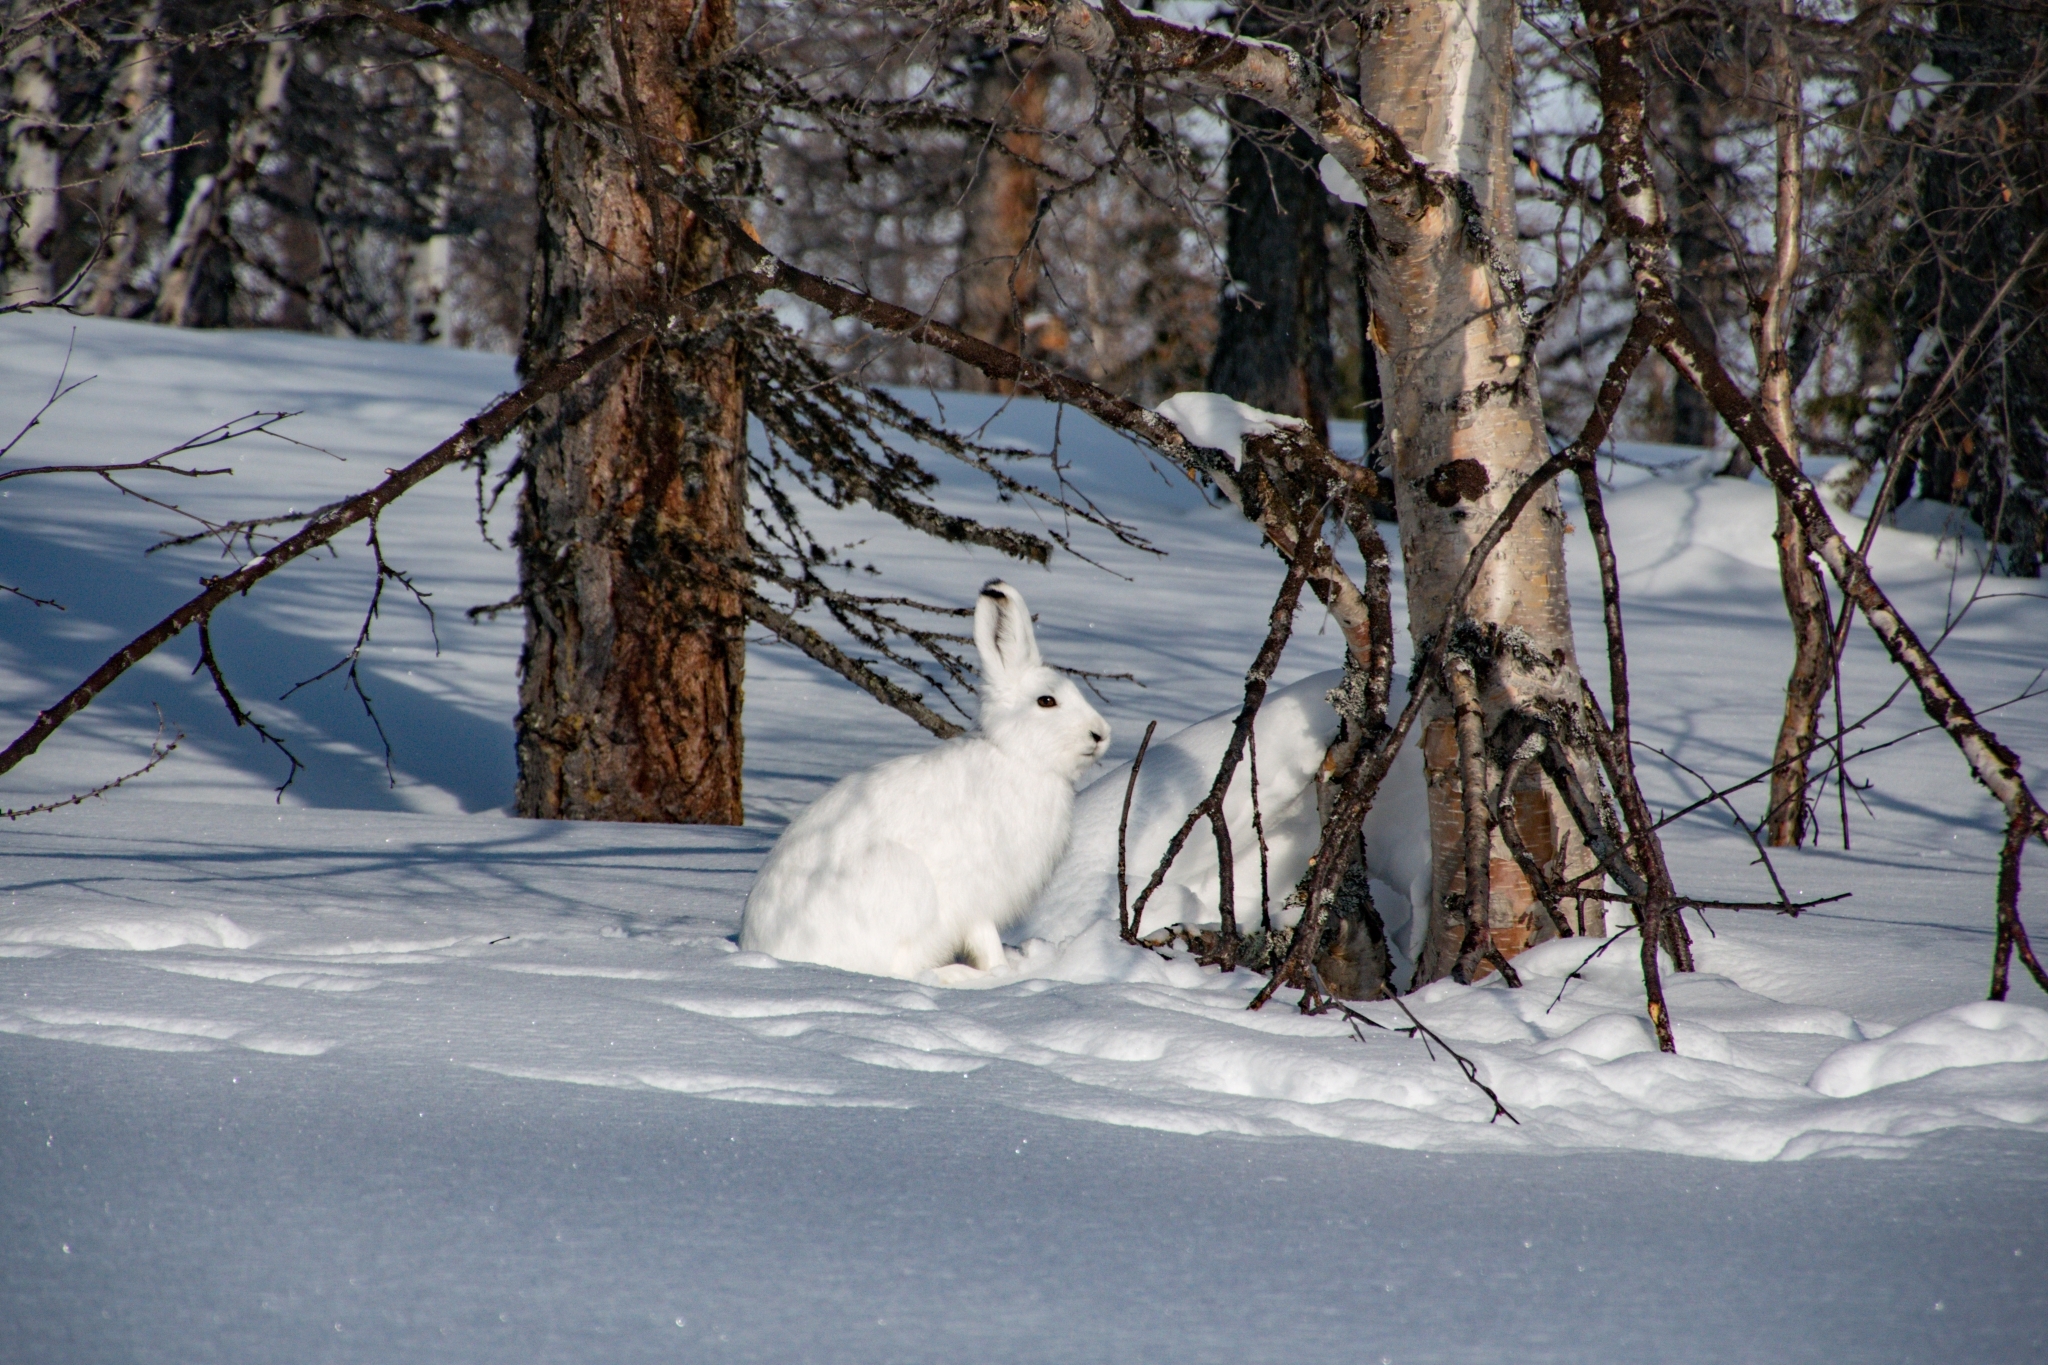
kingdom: Animalia
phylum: Chordata
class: Mammalia
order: Lagomorpha
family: Leporidae
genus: Lepus
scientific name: Lepus timidus
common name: Mountain hare
